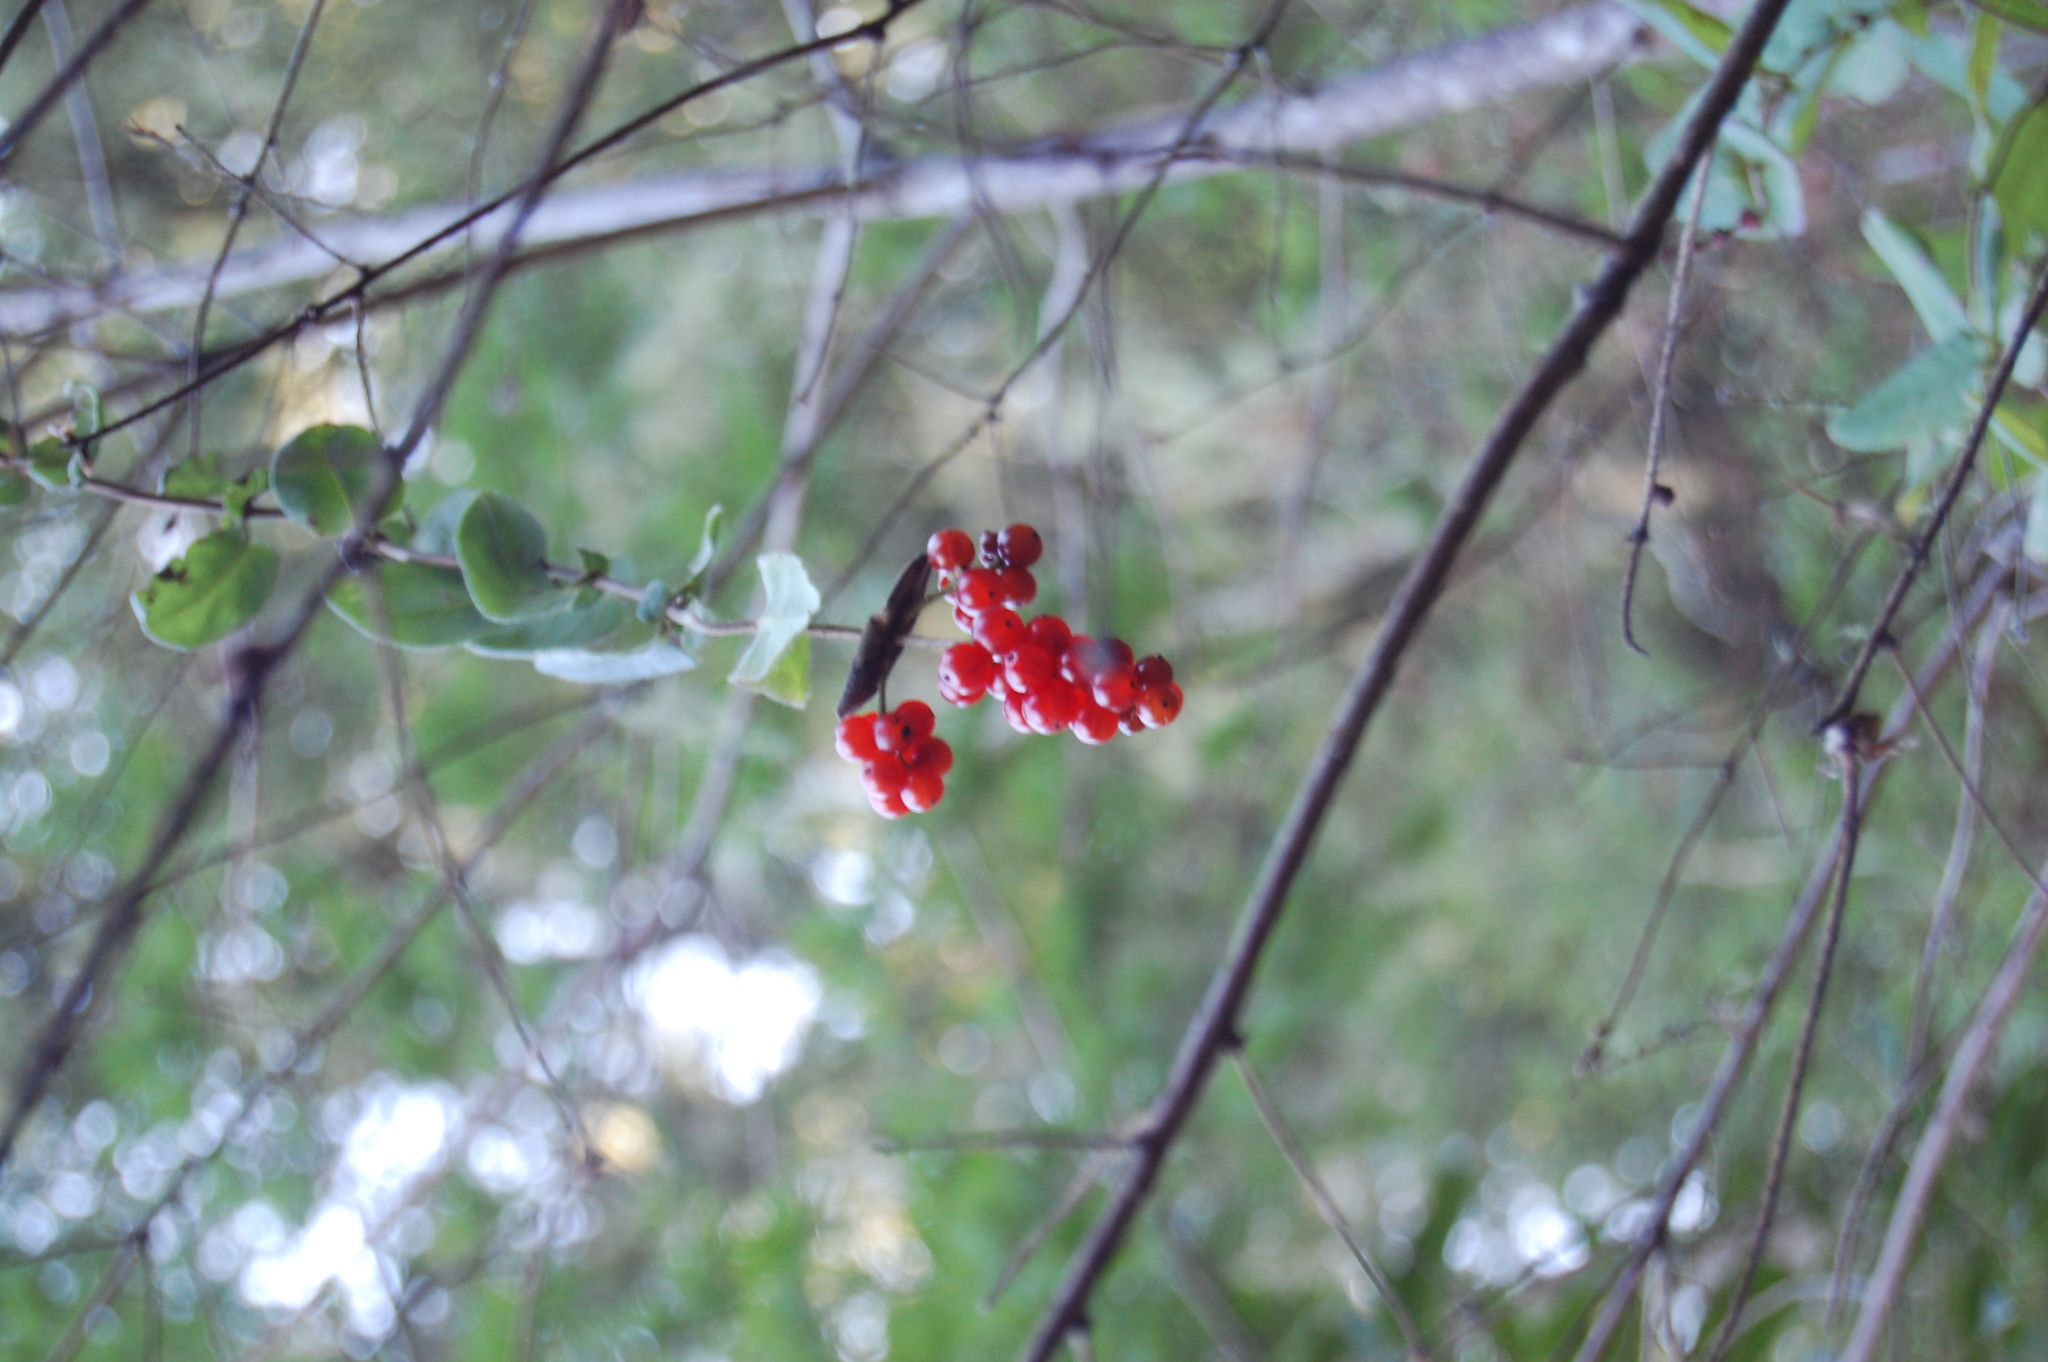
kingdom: Plantae
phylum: Tracheophyta
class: Magnoliopsida
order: Dipsacales
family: Caprifoliaceae
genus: Lonicera
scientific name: Lonicera hispidula
